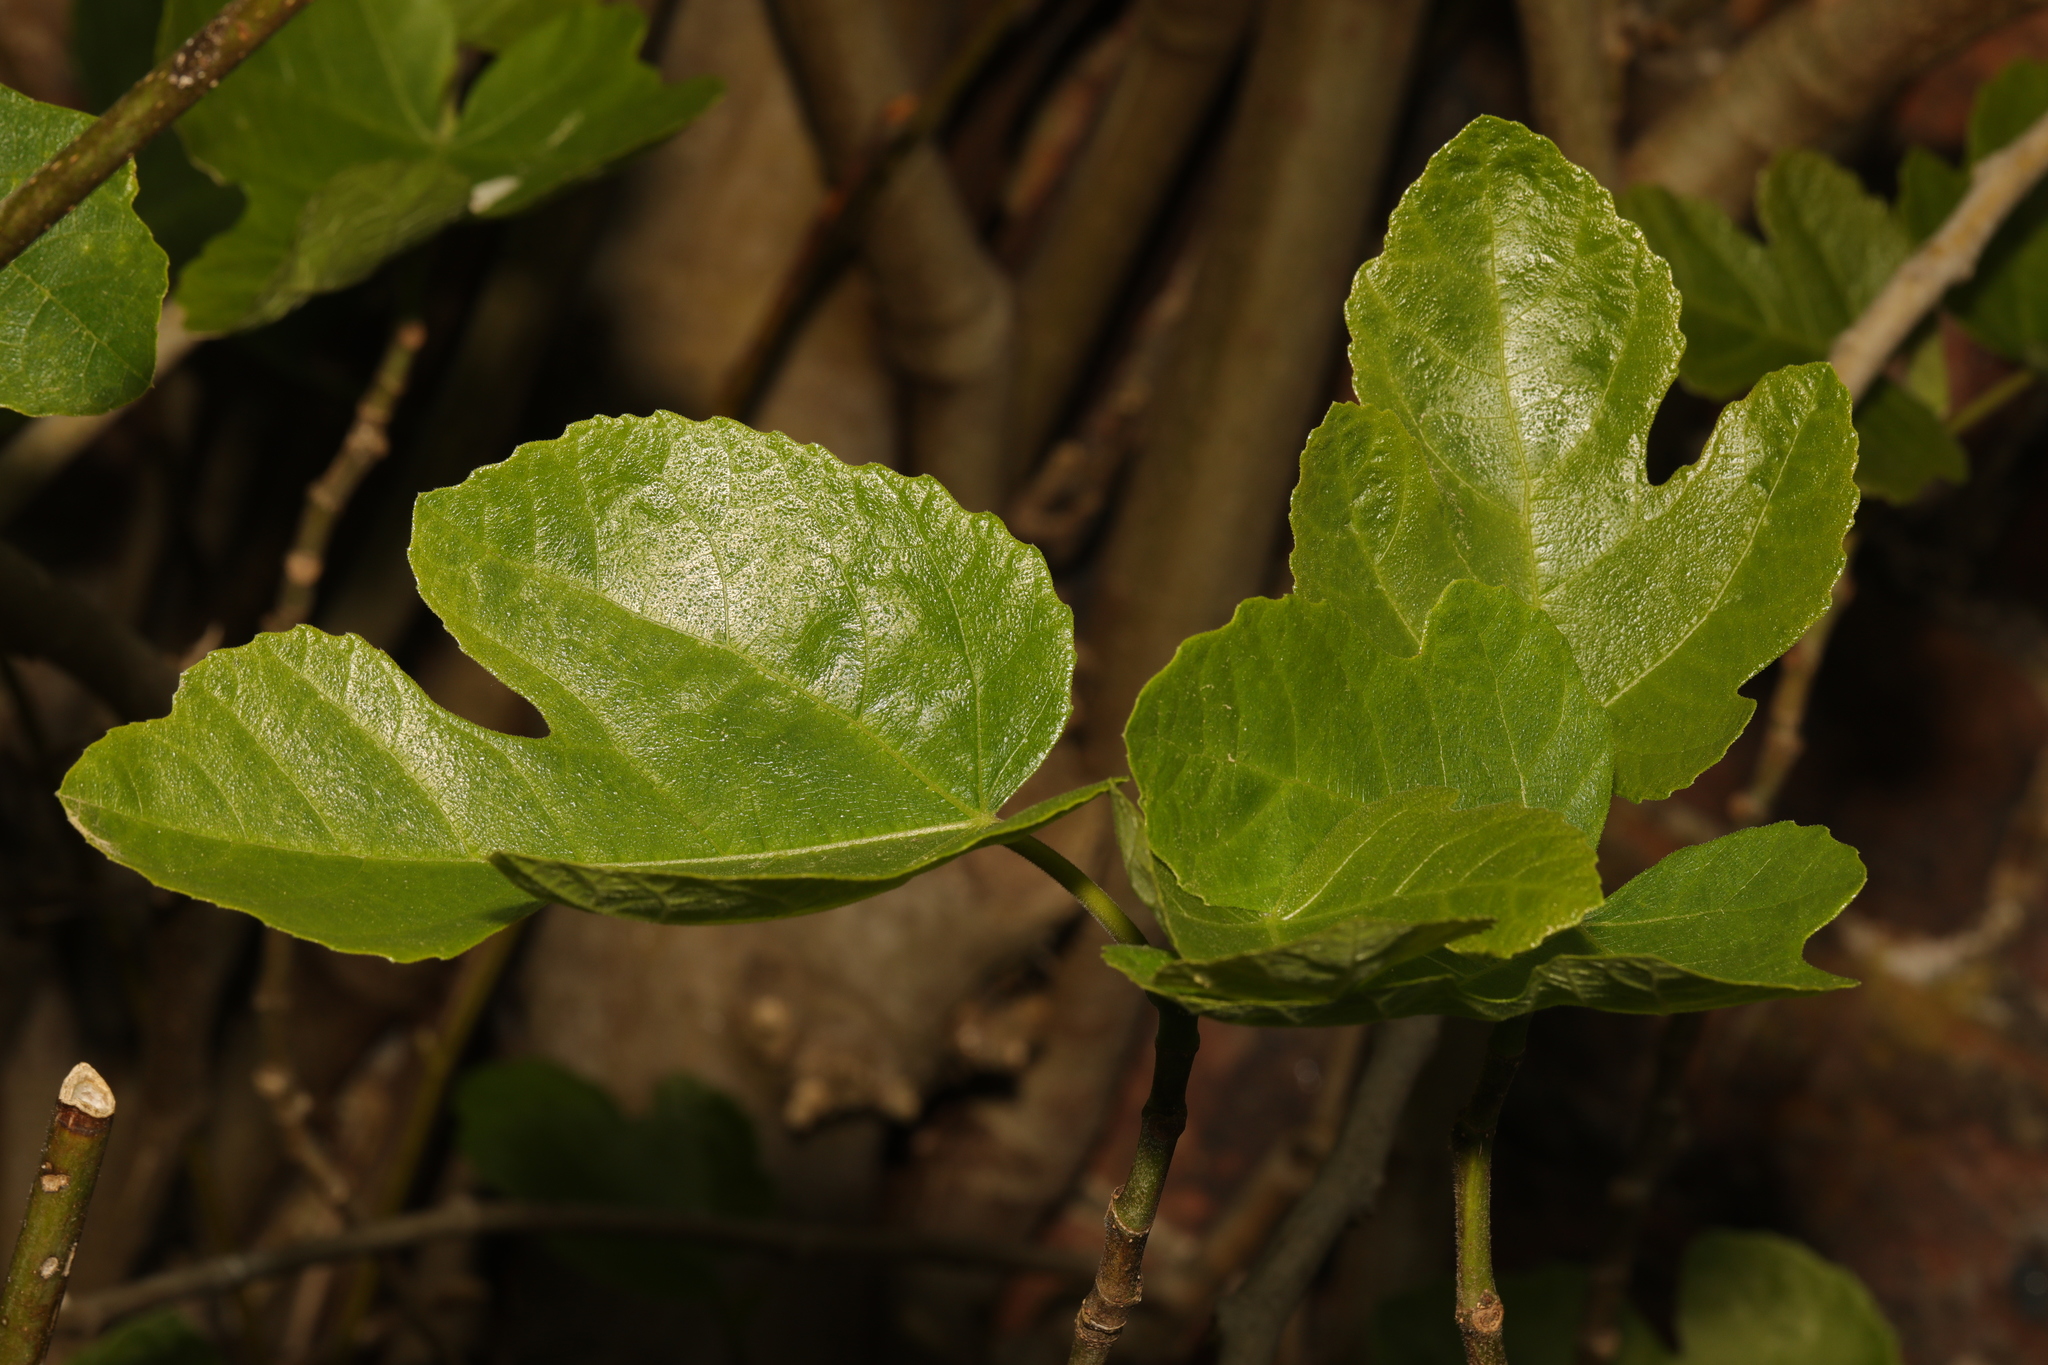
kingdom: Plantae
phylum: Tracheophyta
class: Magnoliopsida
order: Rosales
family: Moraceae
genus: Ficus
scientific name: Ficus carica
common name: Fig
